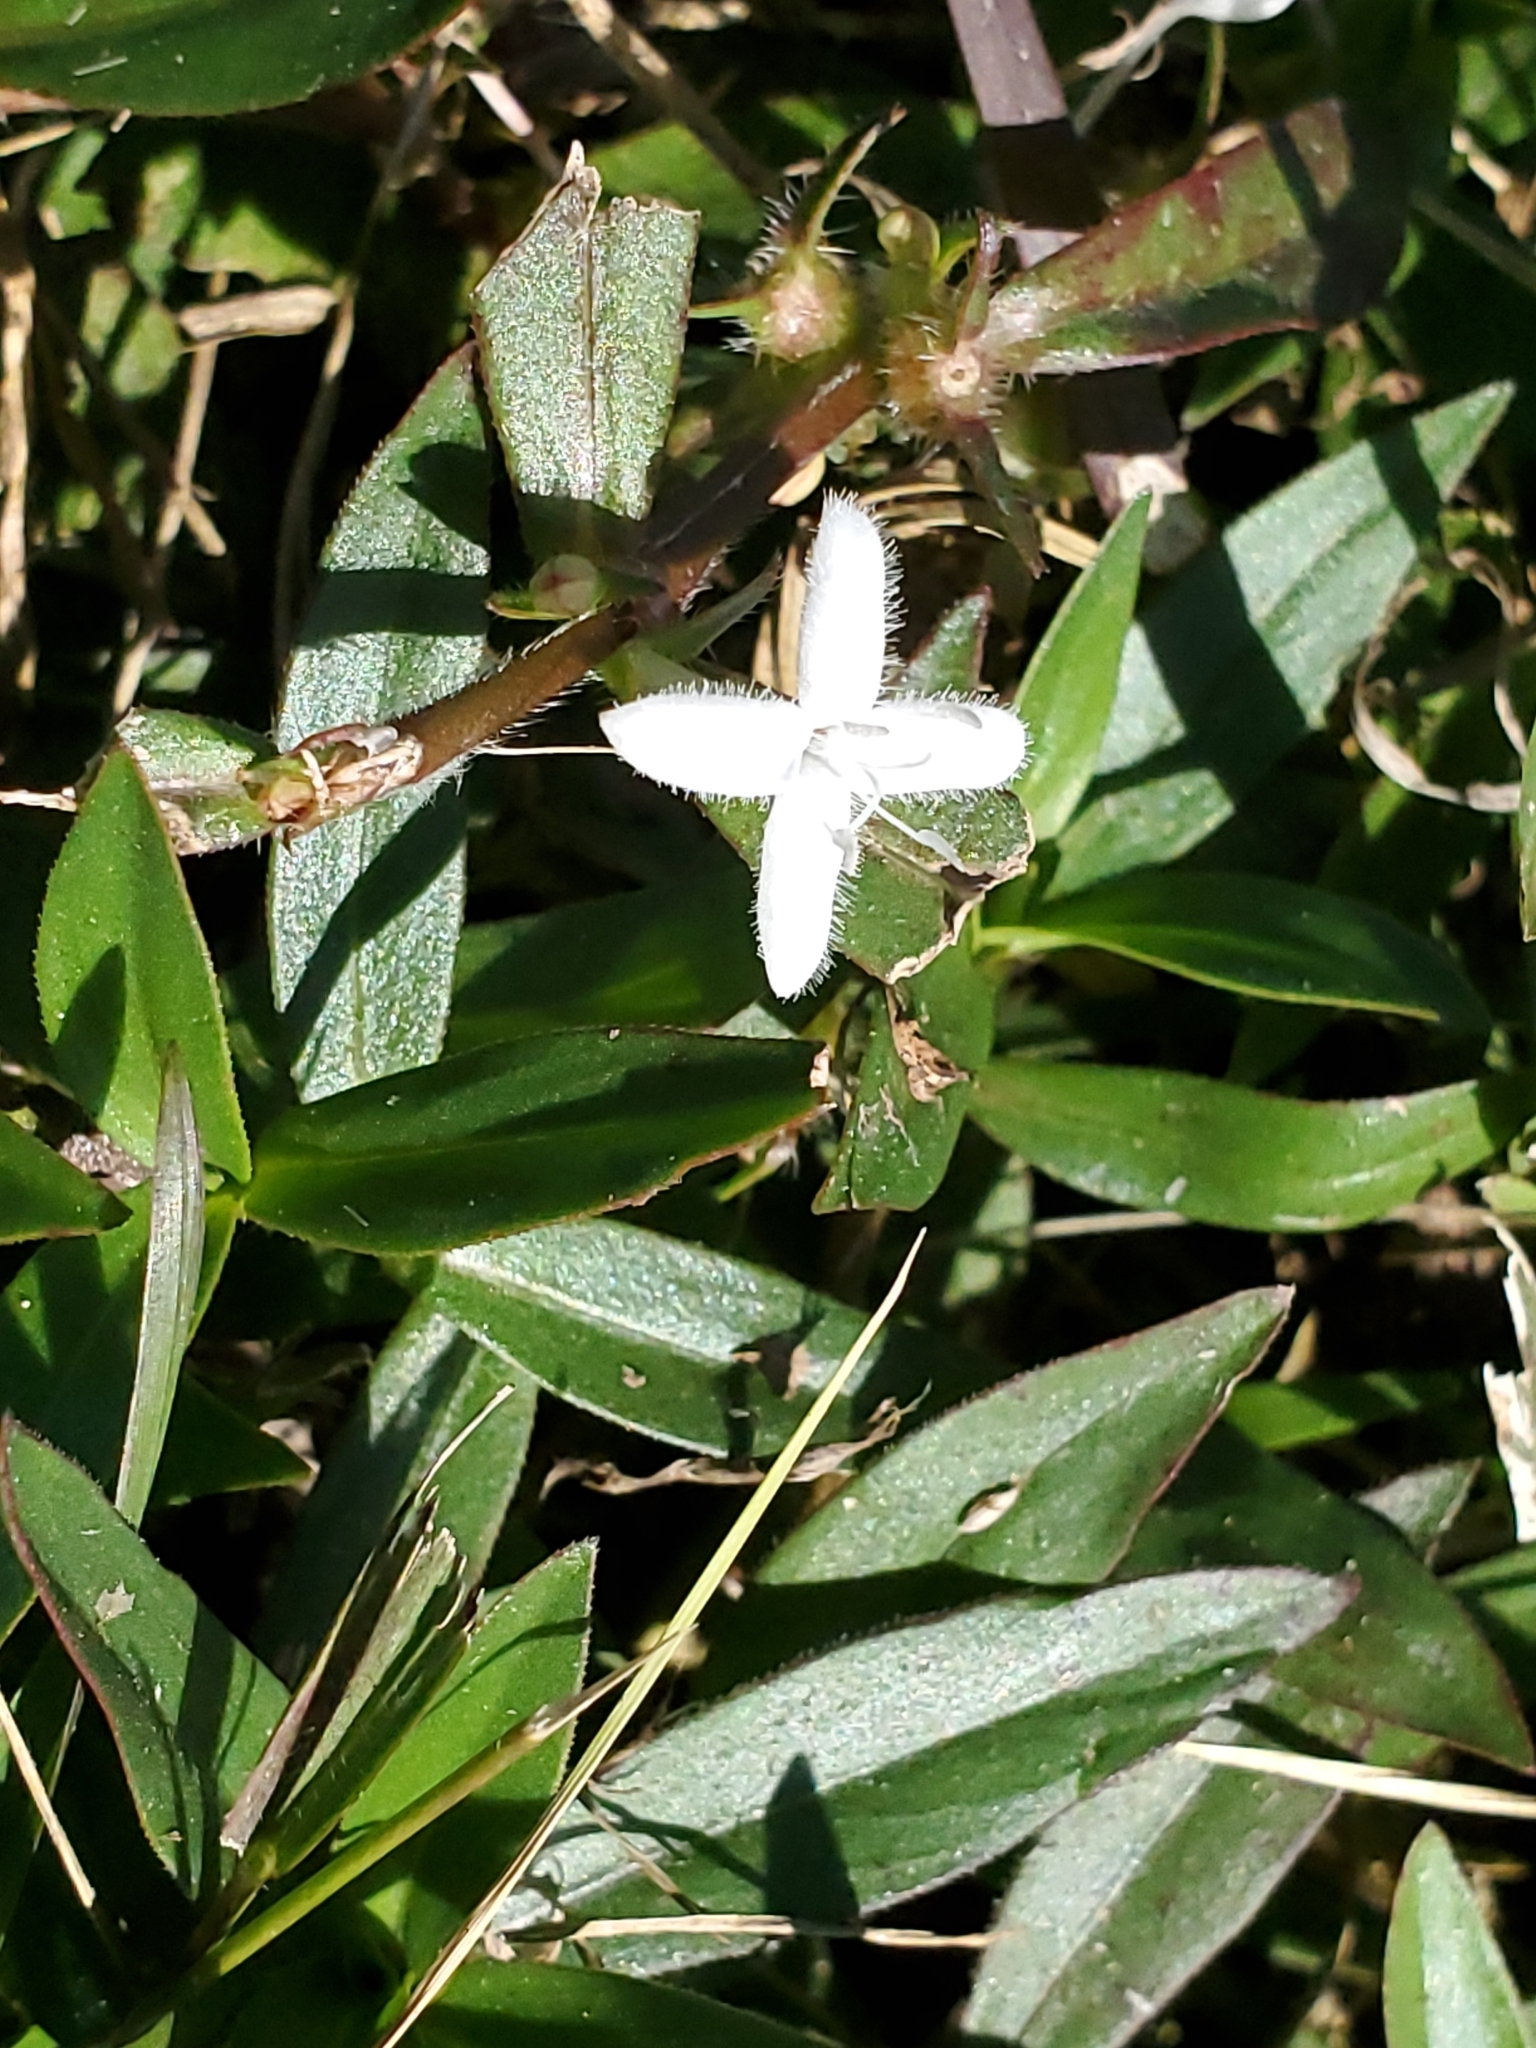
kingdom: Plantae
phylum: Tracheophyta
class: Magnoliopsida
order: Gentianales
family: Rubiaceae
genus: Diodia
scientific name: Diodia virginiana
